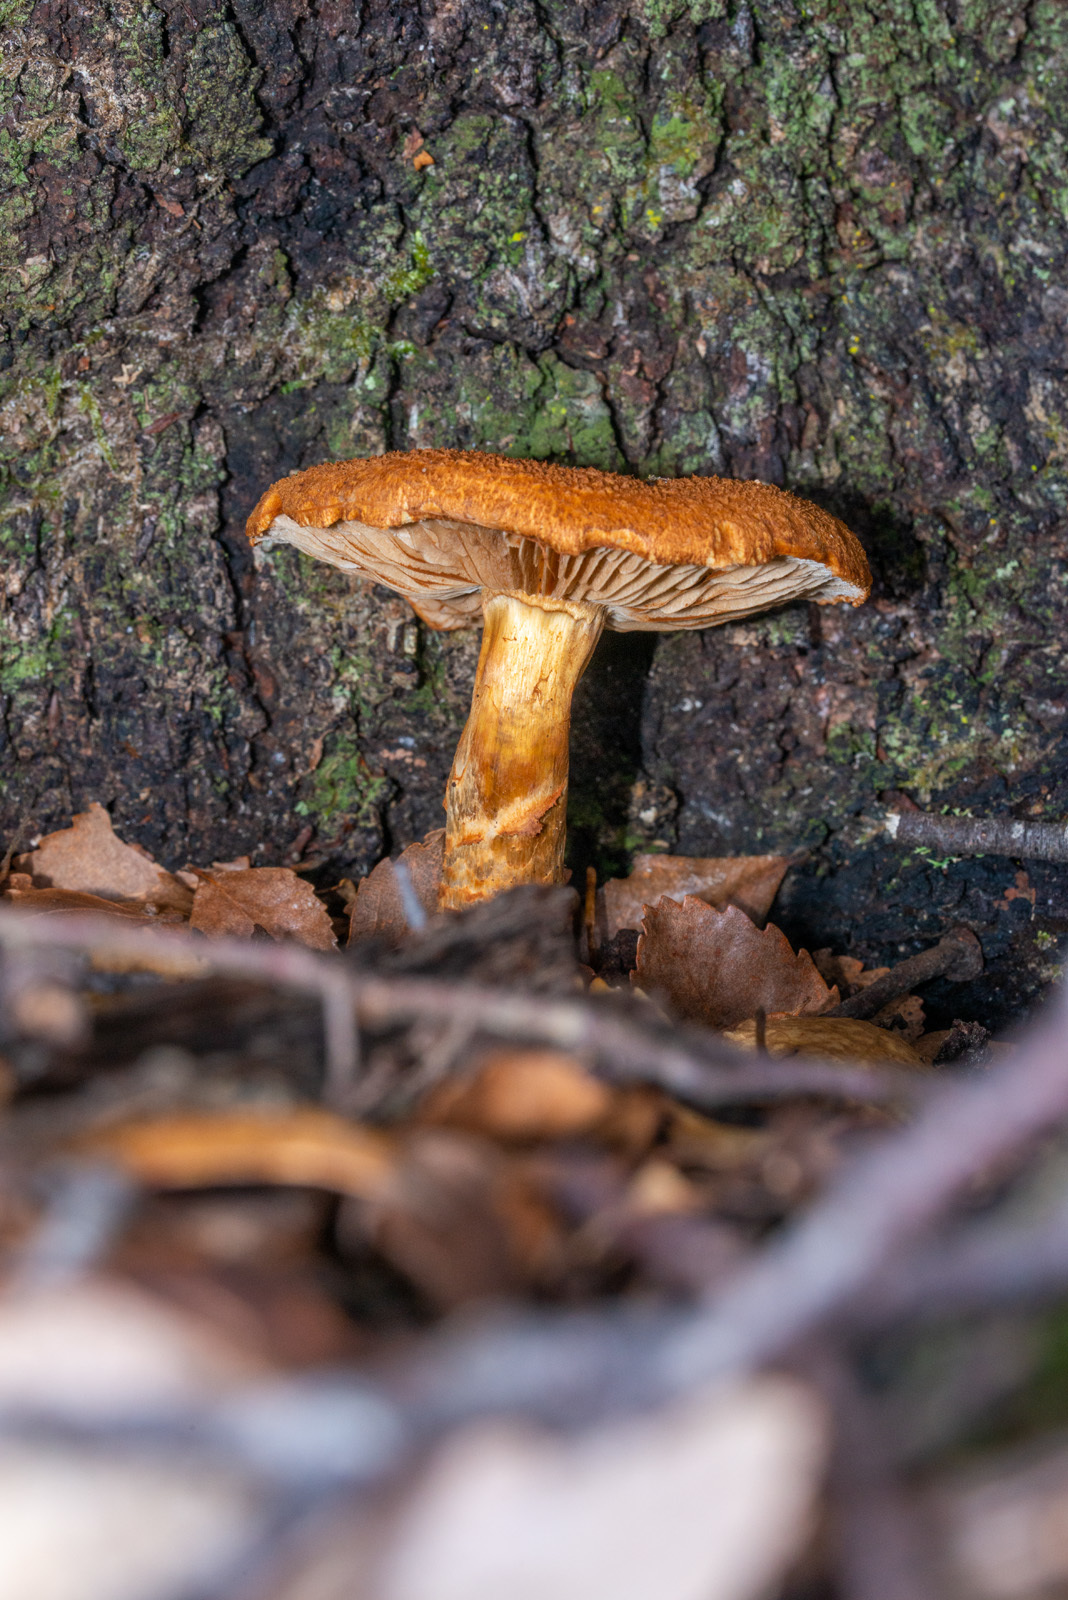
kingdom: Fungi
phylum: Basidiomycota
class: Agaricomycetes
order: Agaricales
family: Cortinariaceae
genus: Thaxterogaster
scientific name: Thaxterogaster castoreus
